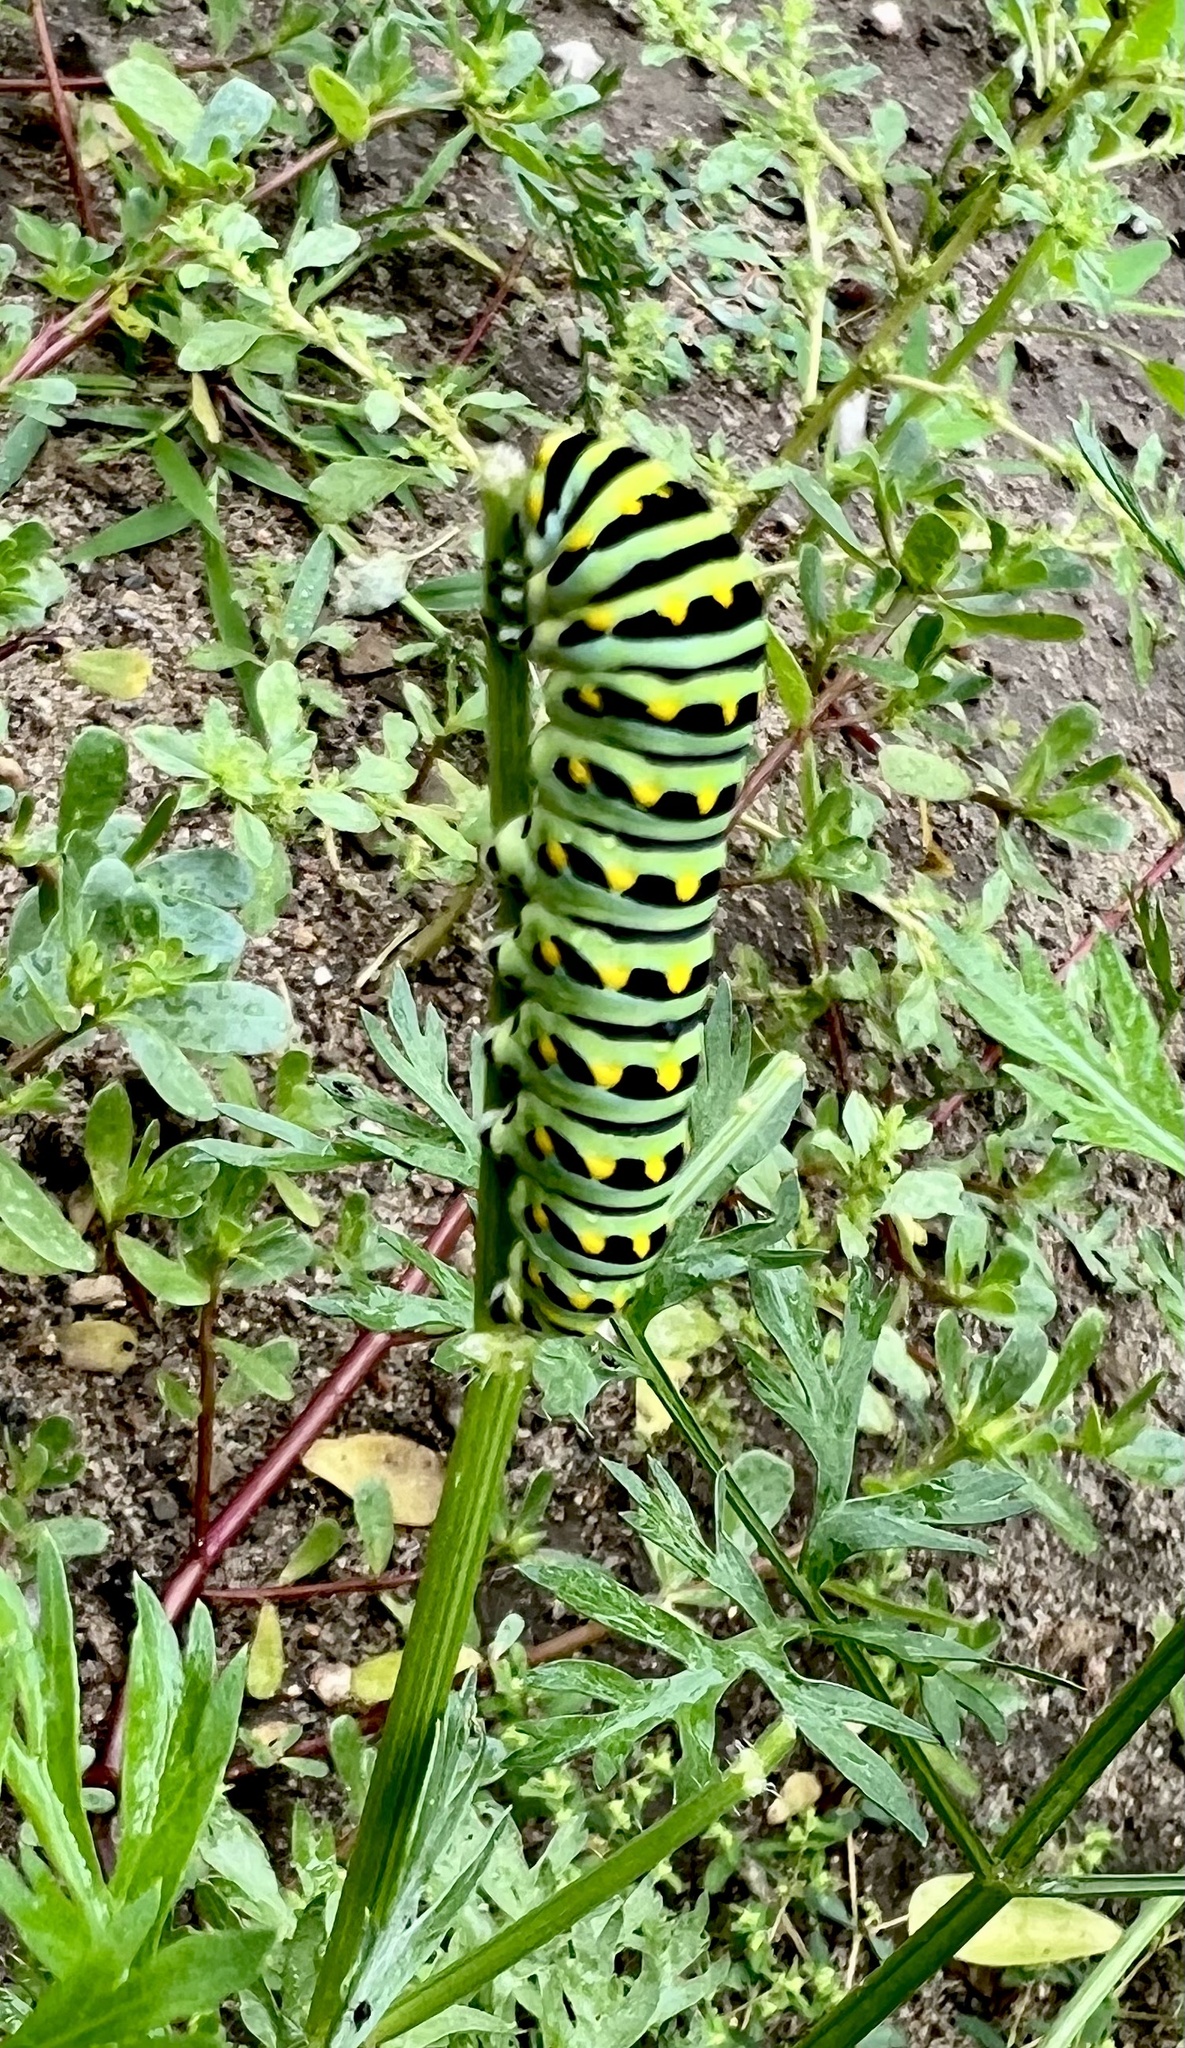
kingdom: Animalia
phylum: Arthropoda
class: Insecta
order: Lepidoptera
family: Papilionidae
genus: Papilio
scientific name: Papilio polyxenes
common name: Black swallowtail
